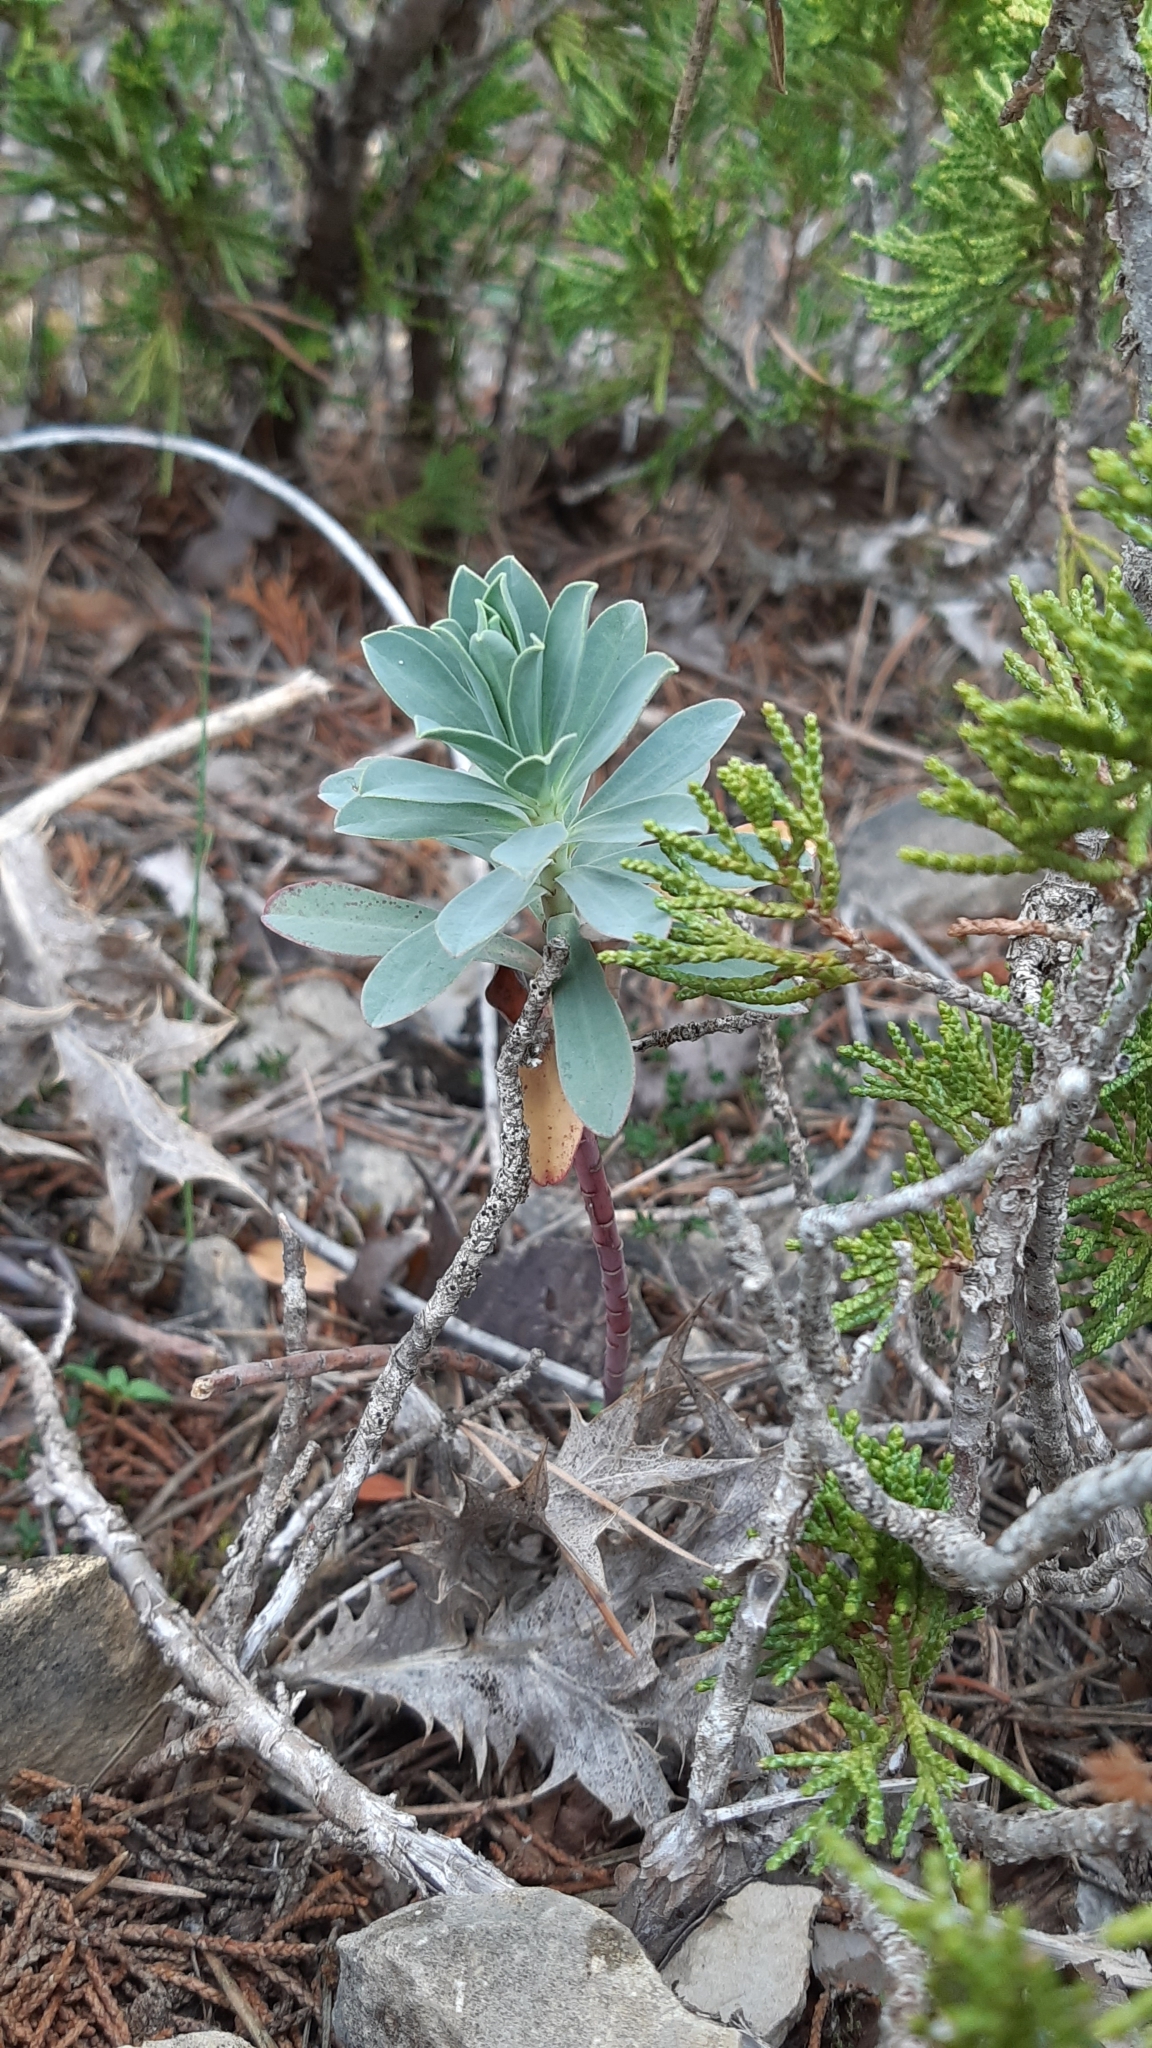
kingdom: Plantae
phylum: Tracheophyta
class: Magnoliopsida
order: Malpighiales
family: Euphorbiaceae
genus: Euphorbia
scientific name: Euphorbia nicaeensis
